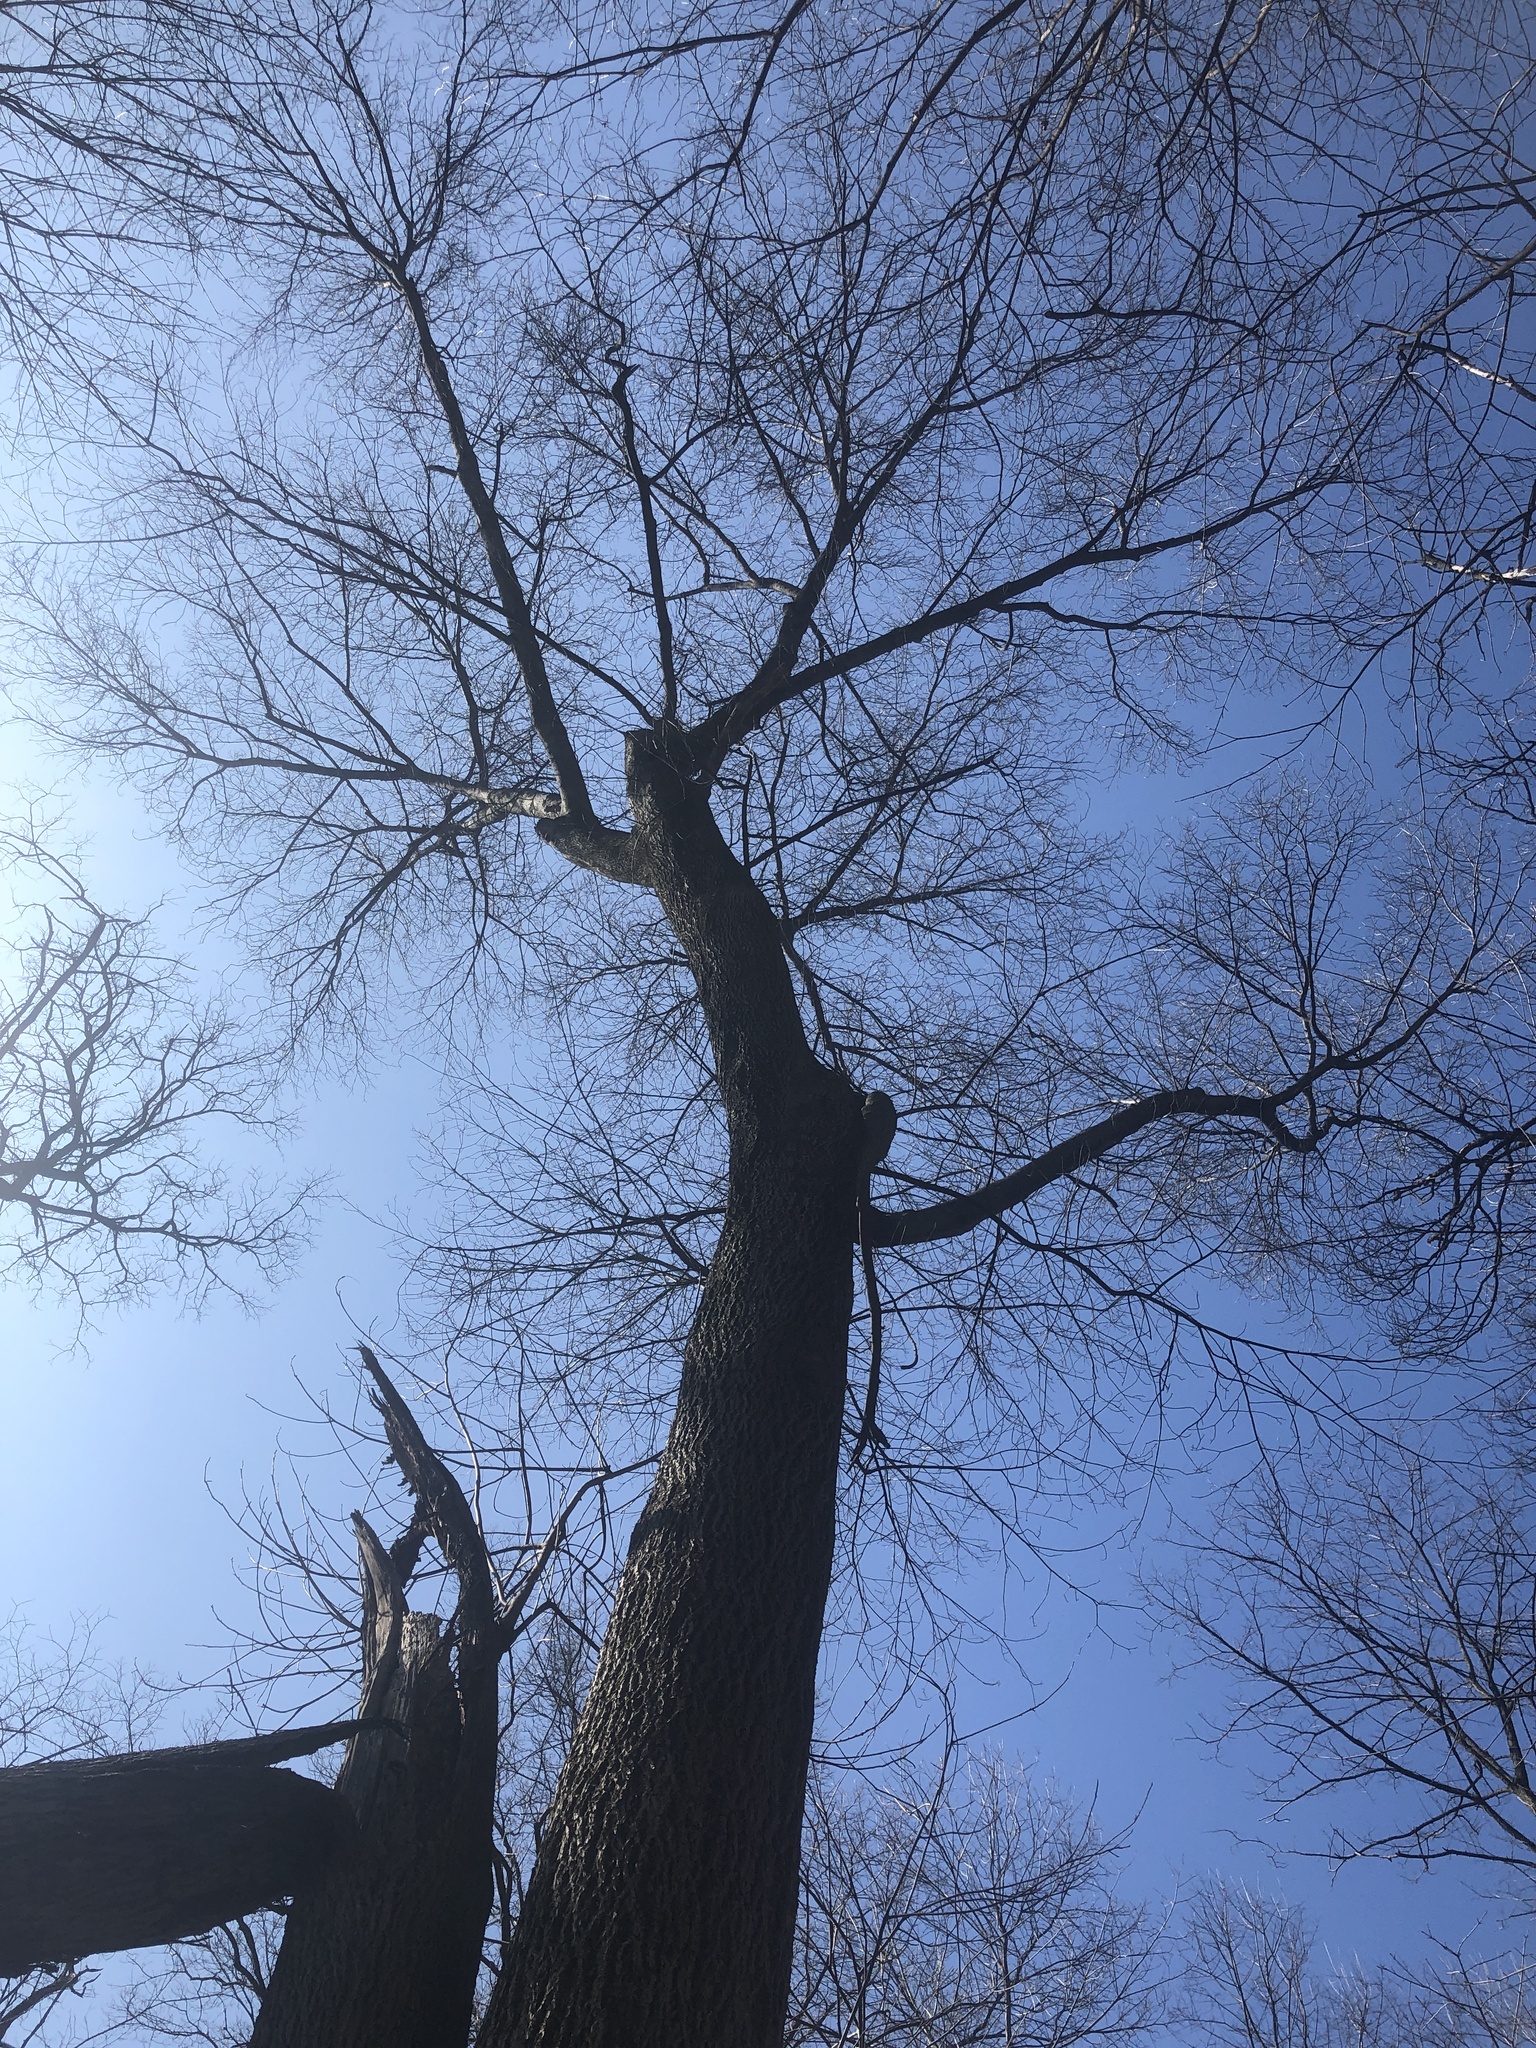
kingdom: Plantae
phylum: Tracheophyta
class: Magnoliopsida
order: Fagales
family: Juglandaceae
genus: Carya
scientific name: Carya cordiformis
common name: Bitternut hickory
